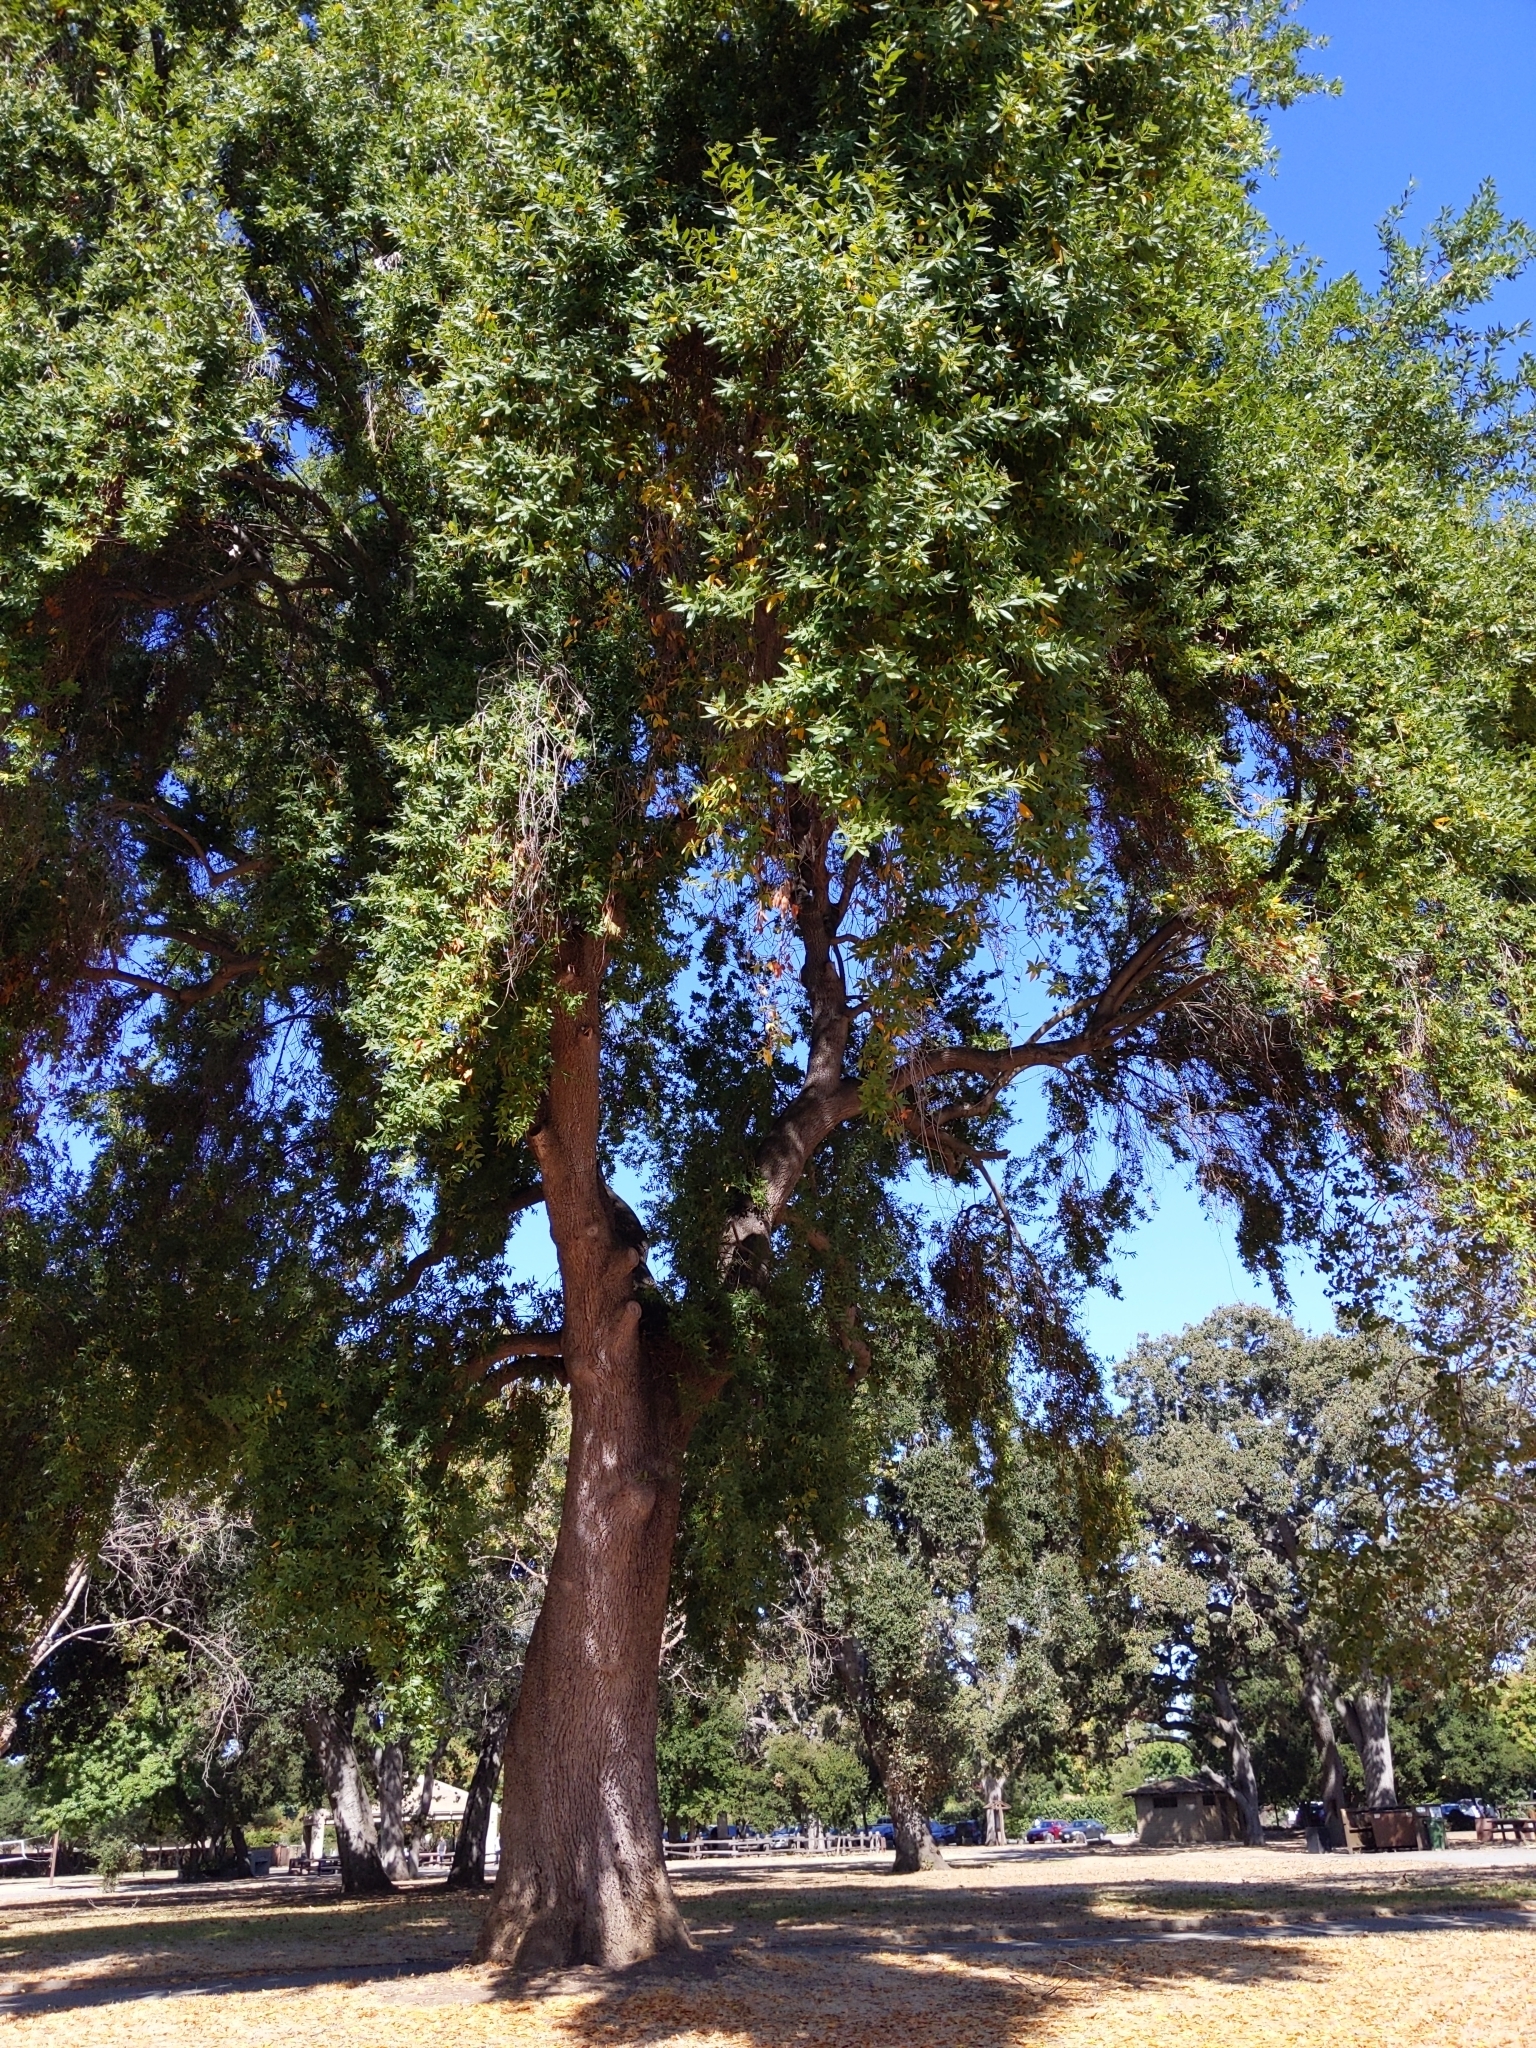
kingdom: Plantae
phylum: Tracheophyta
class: Magnoliopsida
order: Laurales
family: Lauraceae
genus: Umbellularia
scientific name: Umbellularia californica
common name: California bay
